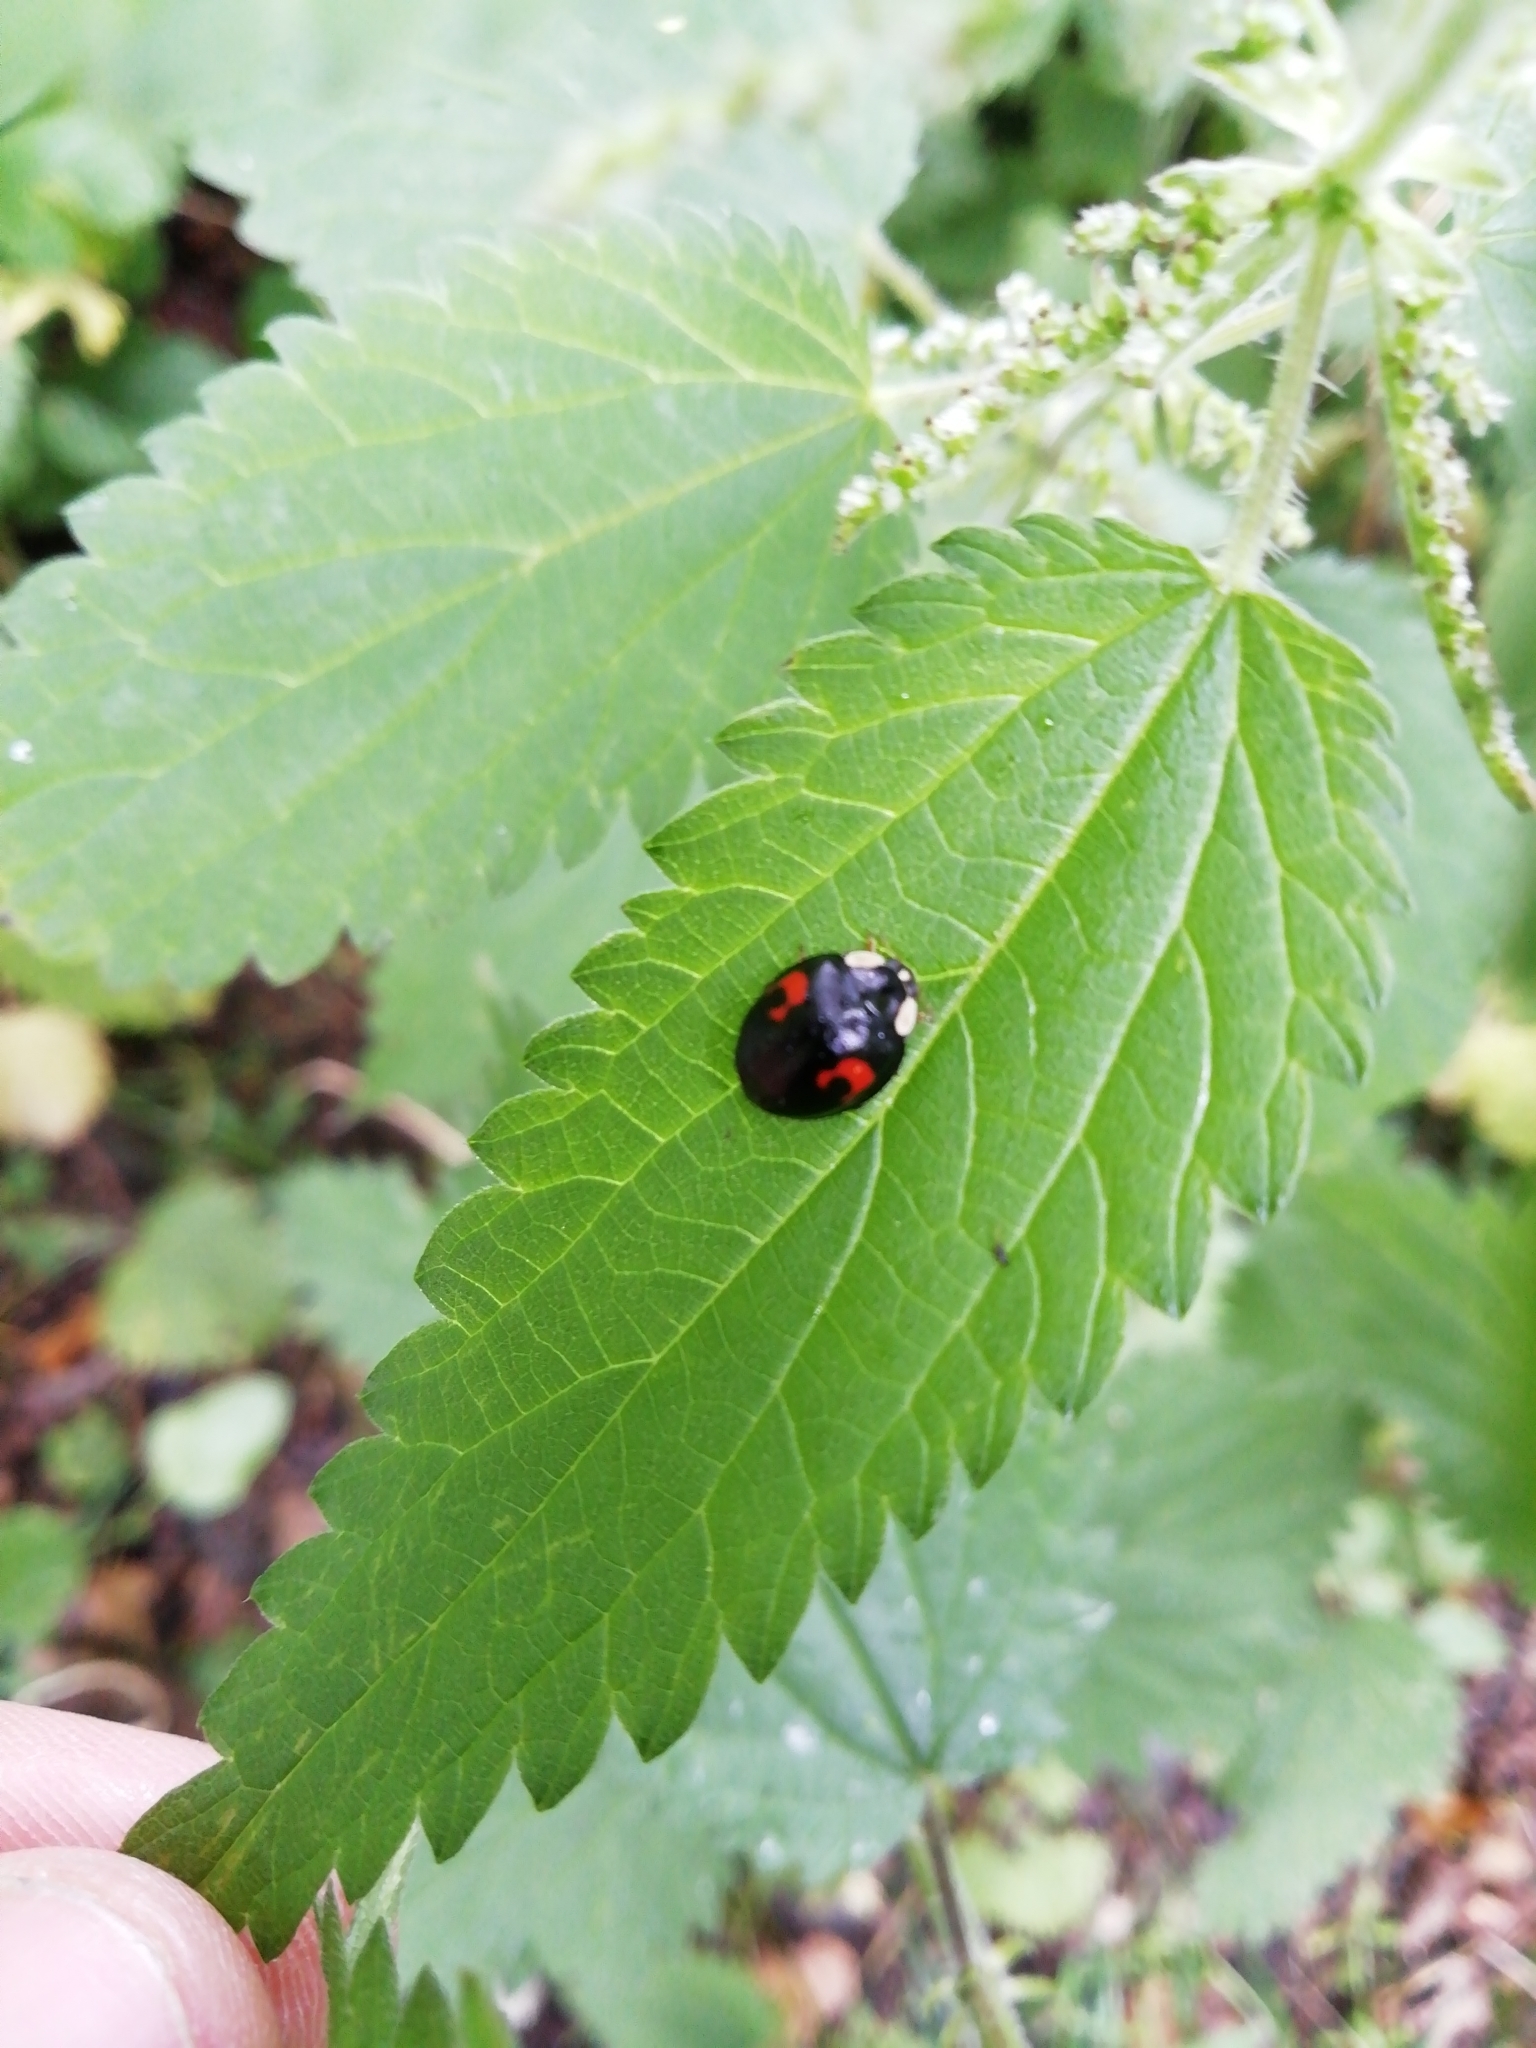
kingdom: Animalia
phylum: Arthropoda
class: Insecta
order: Coleoptera
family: Coccinellidae
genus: Harmonia
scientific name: Harmonia axyridis
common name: Harlequin ladybird
